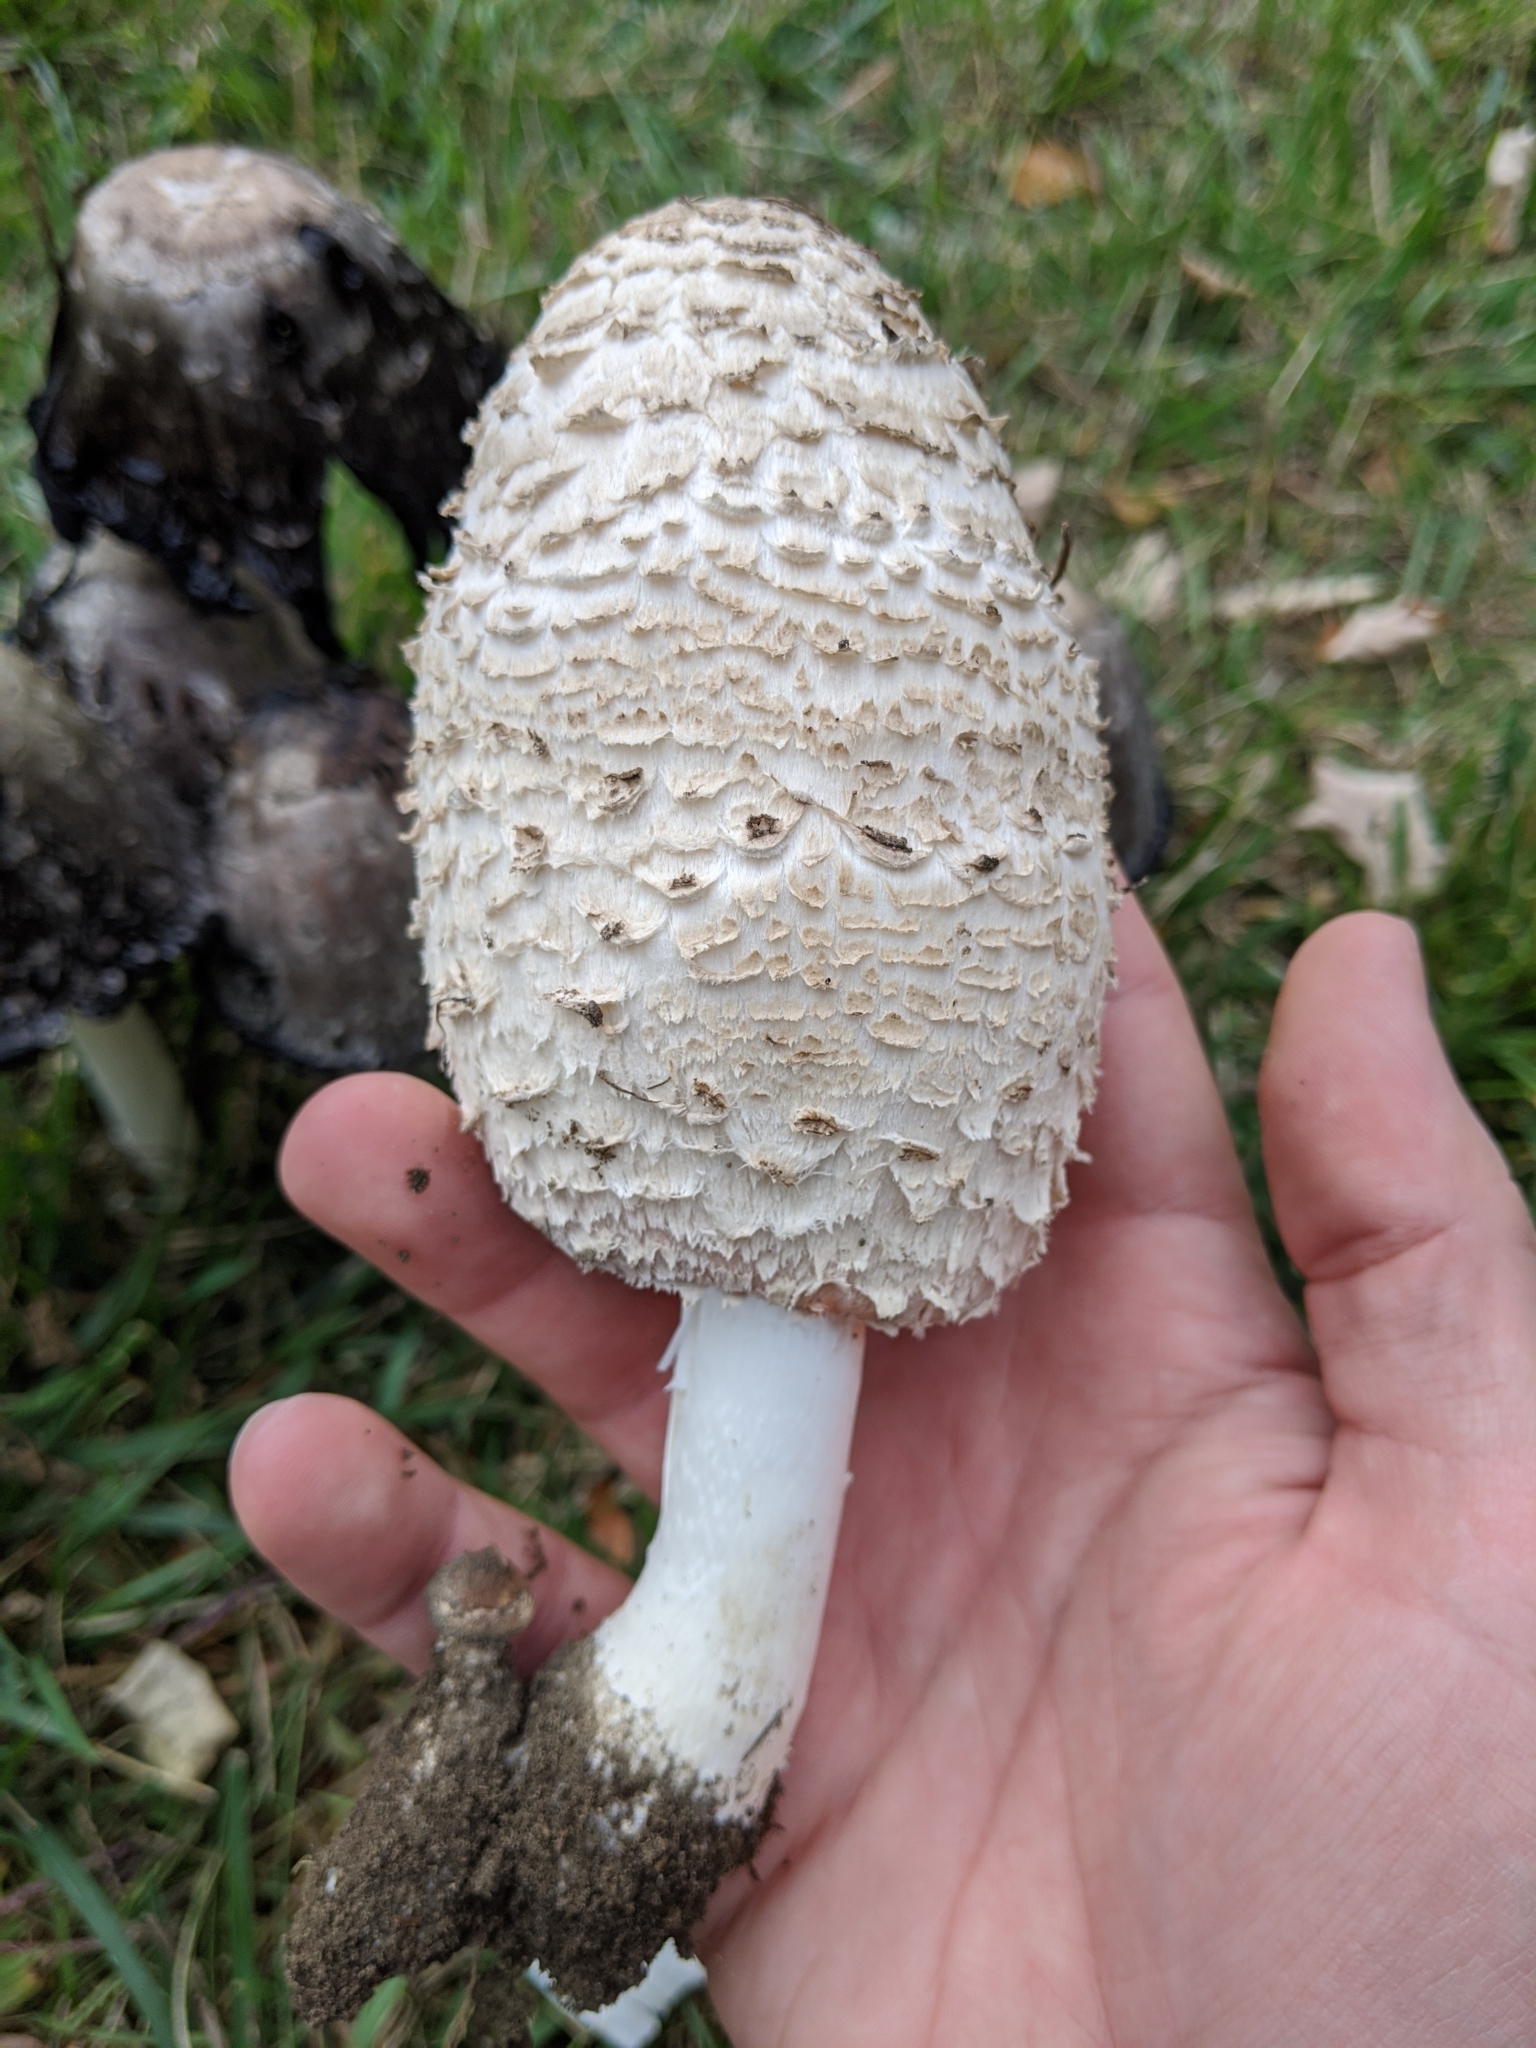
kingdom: Fungi
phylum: Basidiomycota
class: Agaricomycetes
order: Agaricales
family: Agaricaceae
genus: Coprinus
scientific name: Coprinus comatus
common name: Lawyer's wig
